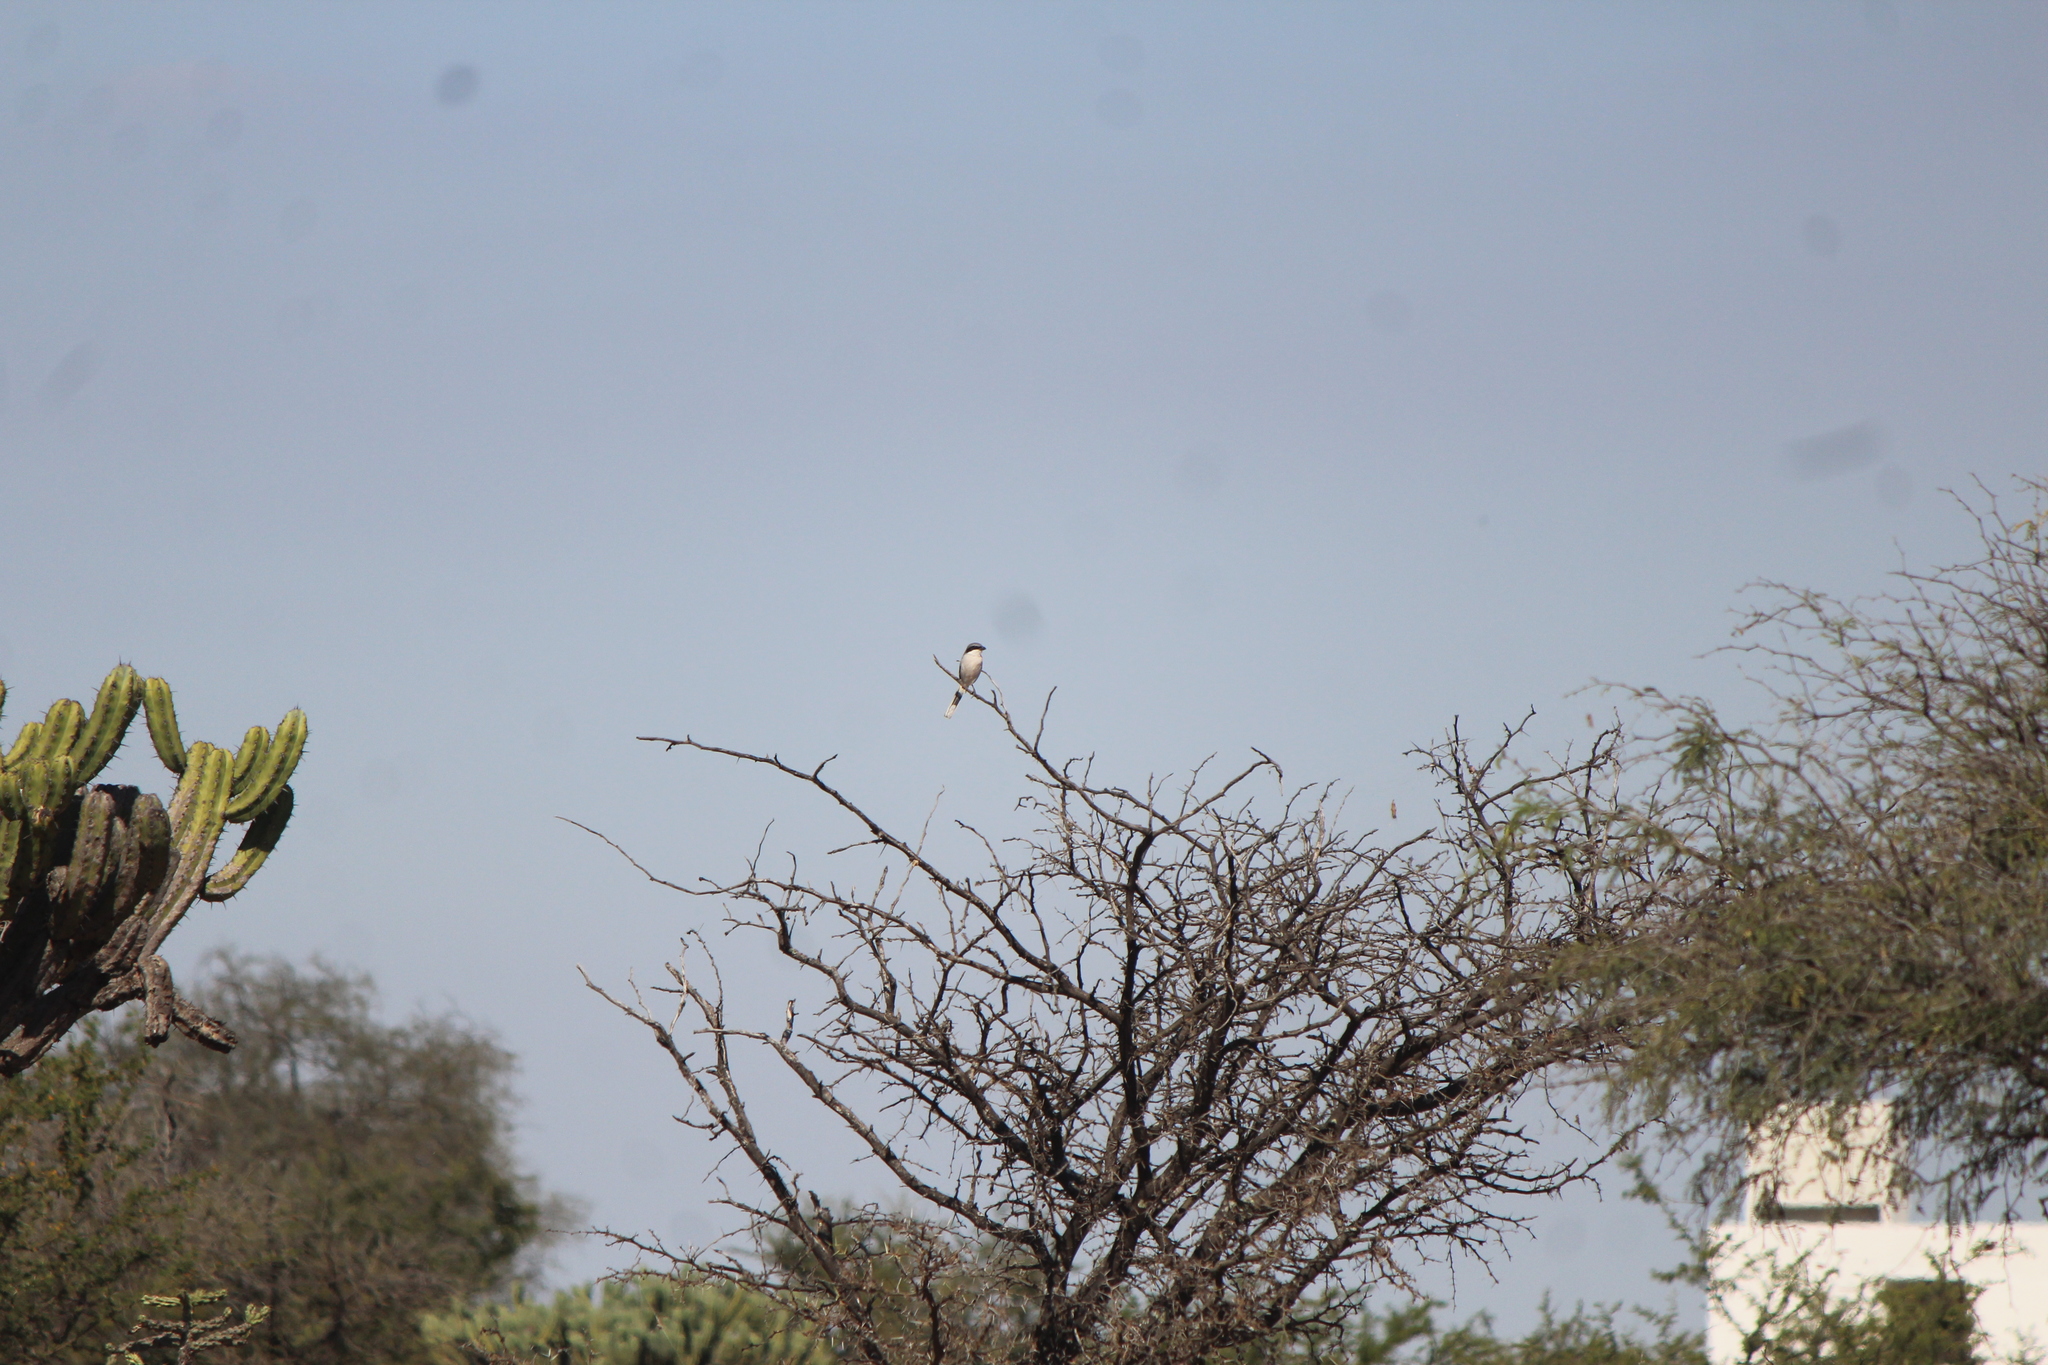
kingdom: Animalia
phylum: Chordata
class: Aves
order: Passeriformes
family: Laniidae
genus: Lanius
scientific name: Lanius ludovicianus
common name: Loggerhead shrike
